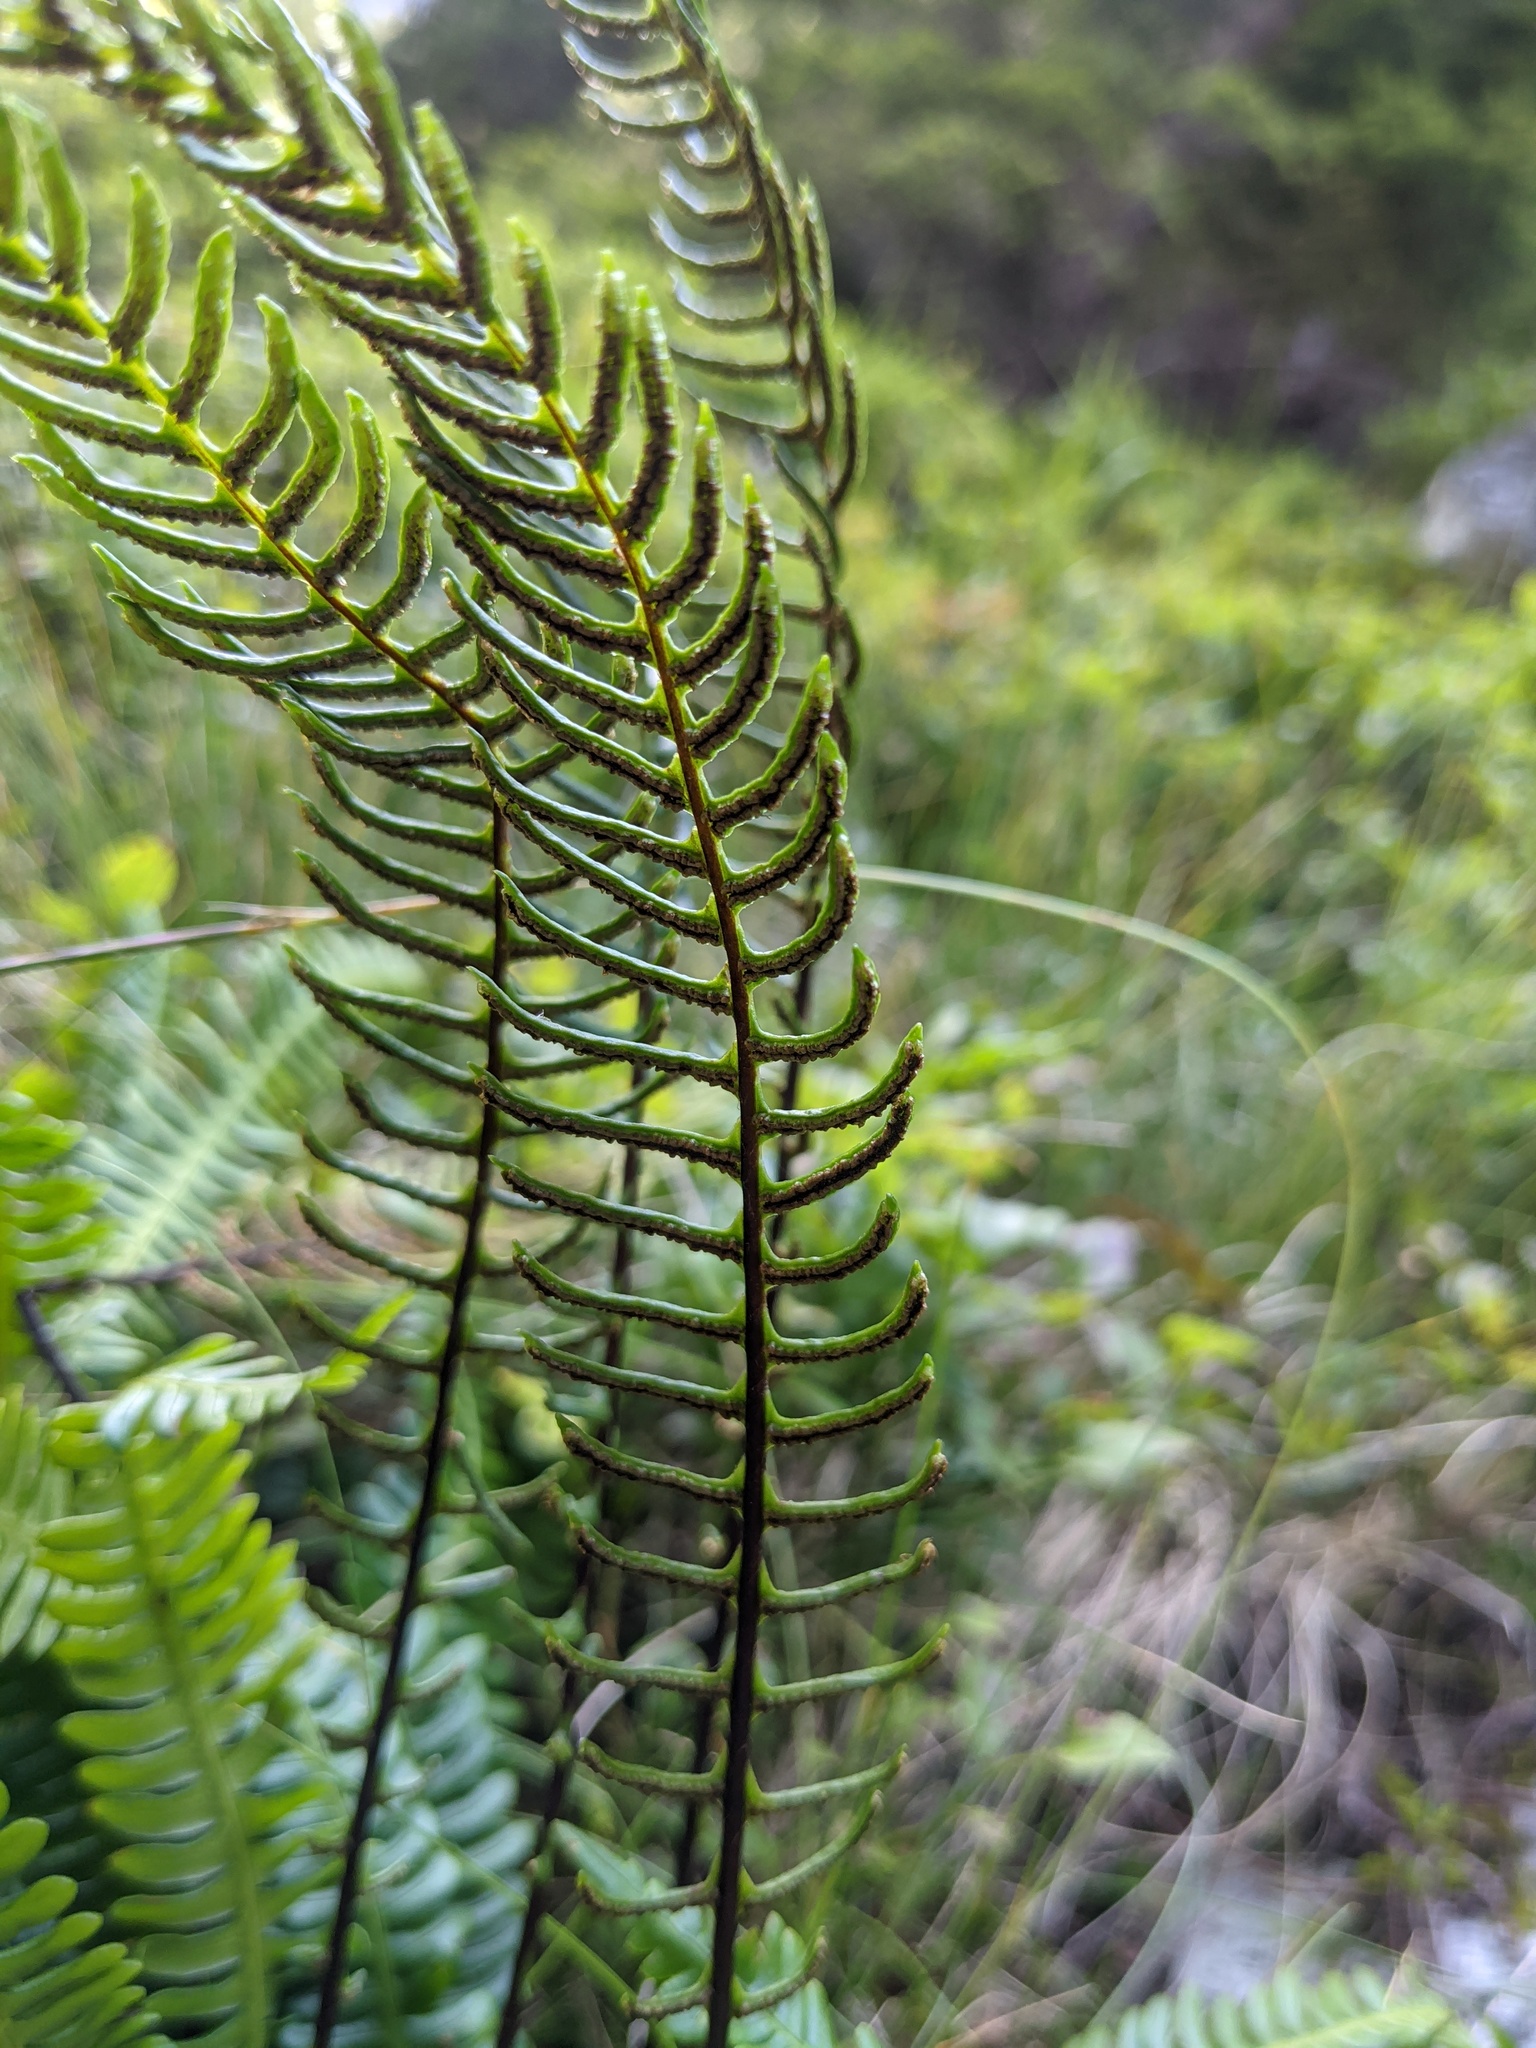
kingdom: Plantae
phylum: Tracheophyta
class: Polypodiopsida
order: Polypodiales
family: Blechnaceae
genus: Struthiopteris
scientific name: Struthiopteris spicant
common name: Deer fern
